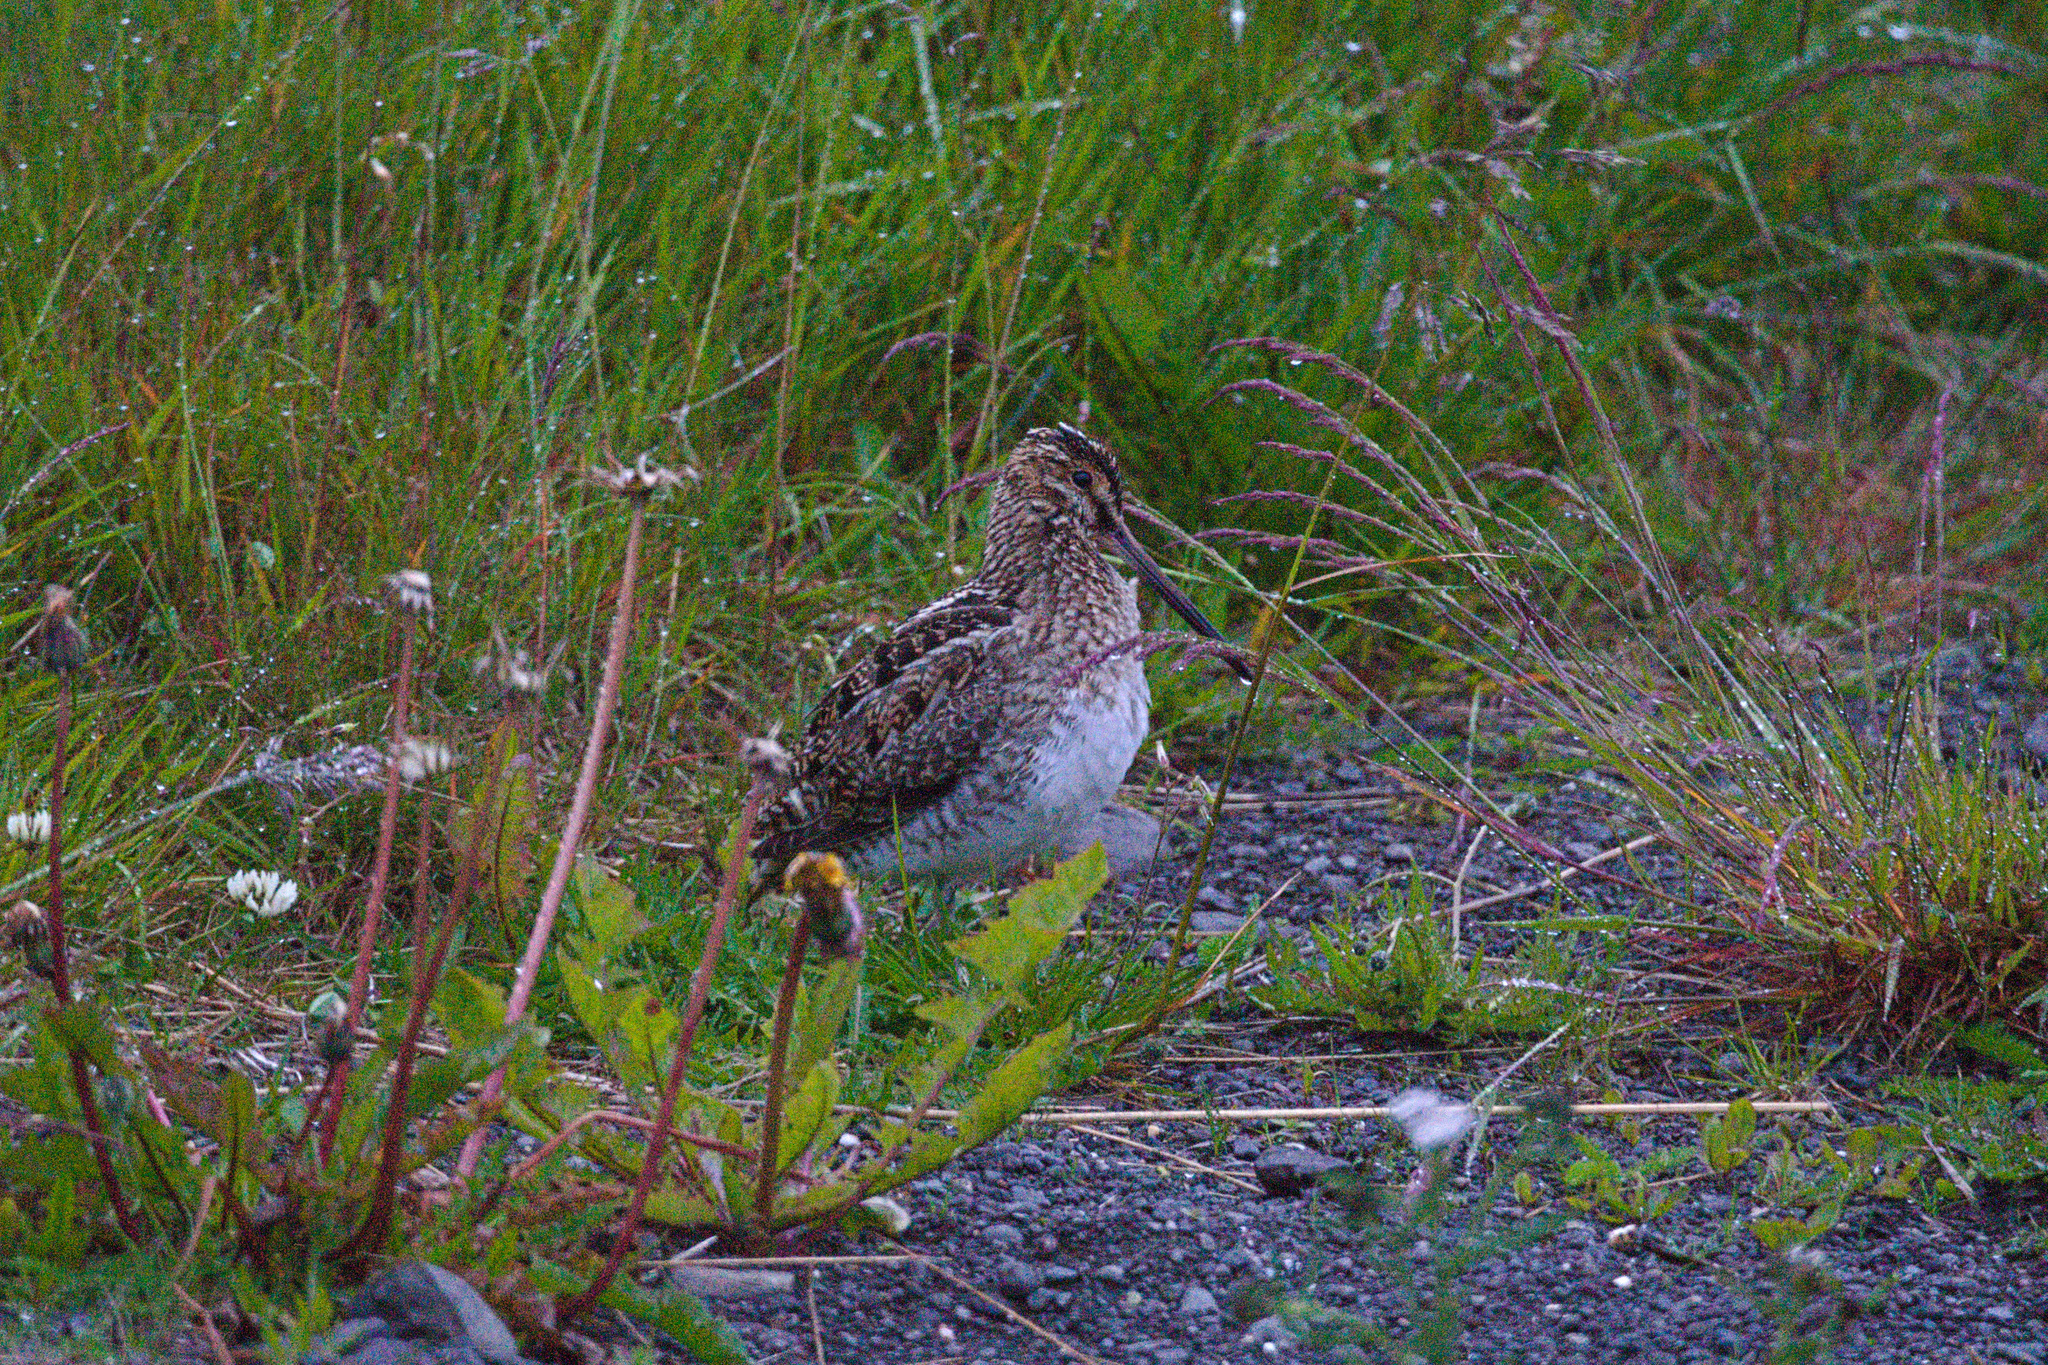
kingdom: Animalia
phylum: Chordata
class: Aves
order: Charadriiformes
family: Scolopacidae
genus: Gallinago
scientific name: Gallinago gallinago
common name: Common snipe
